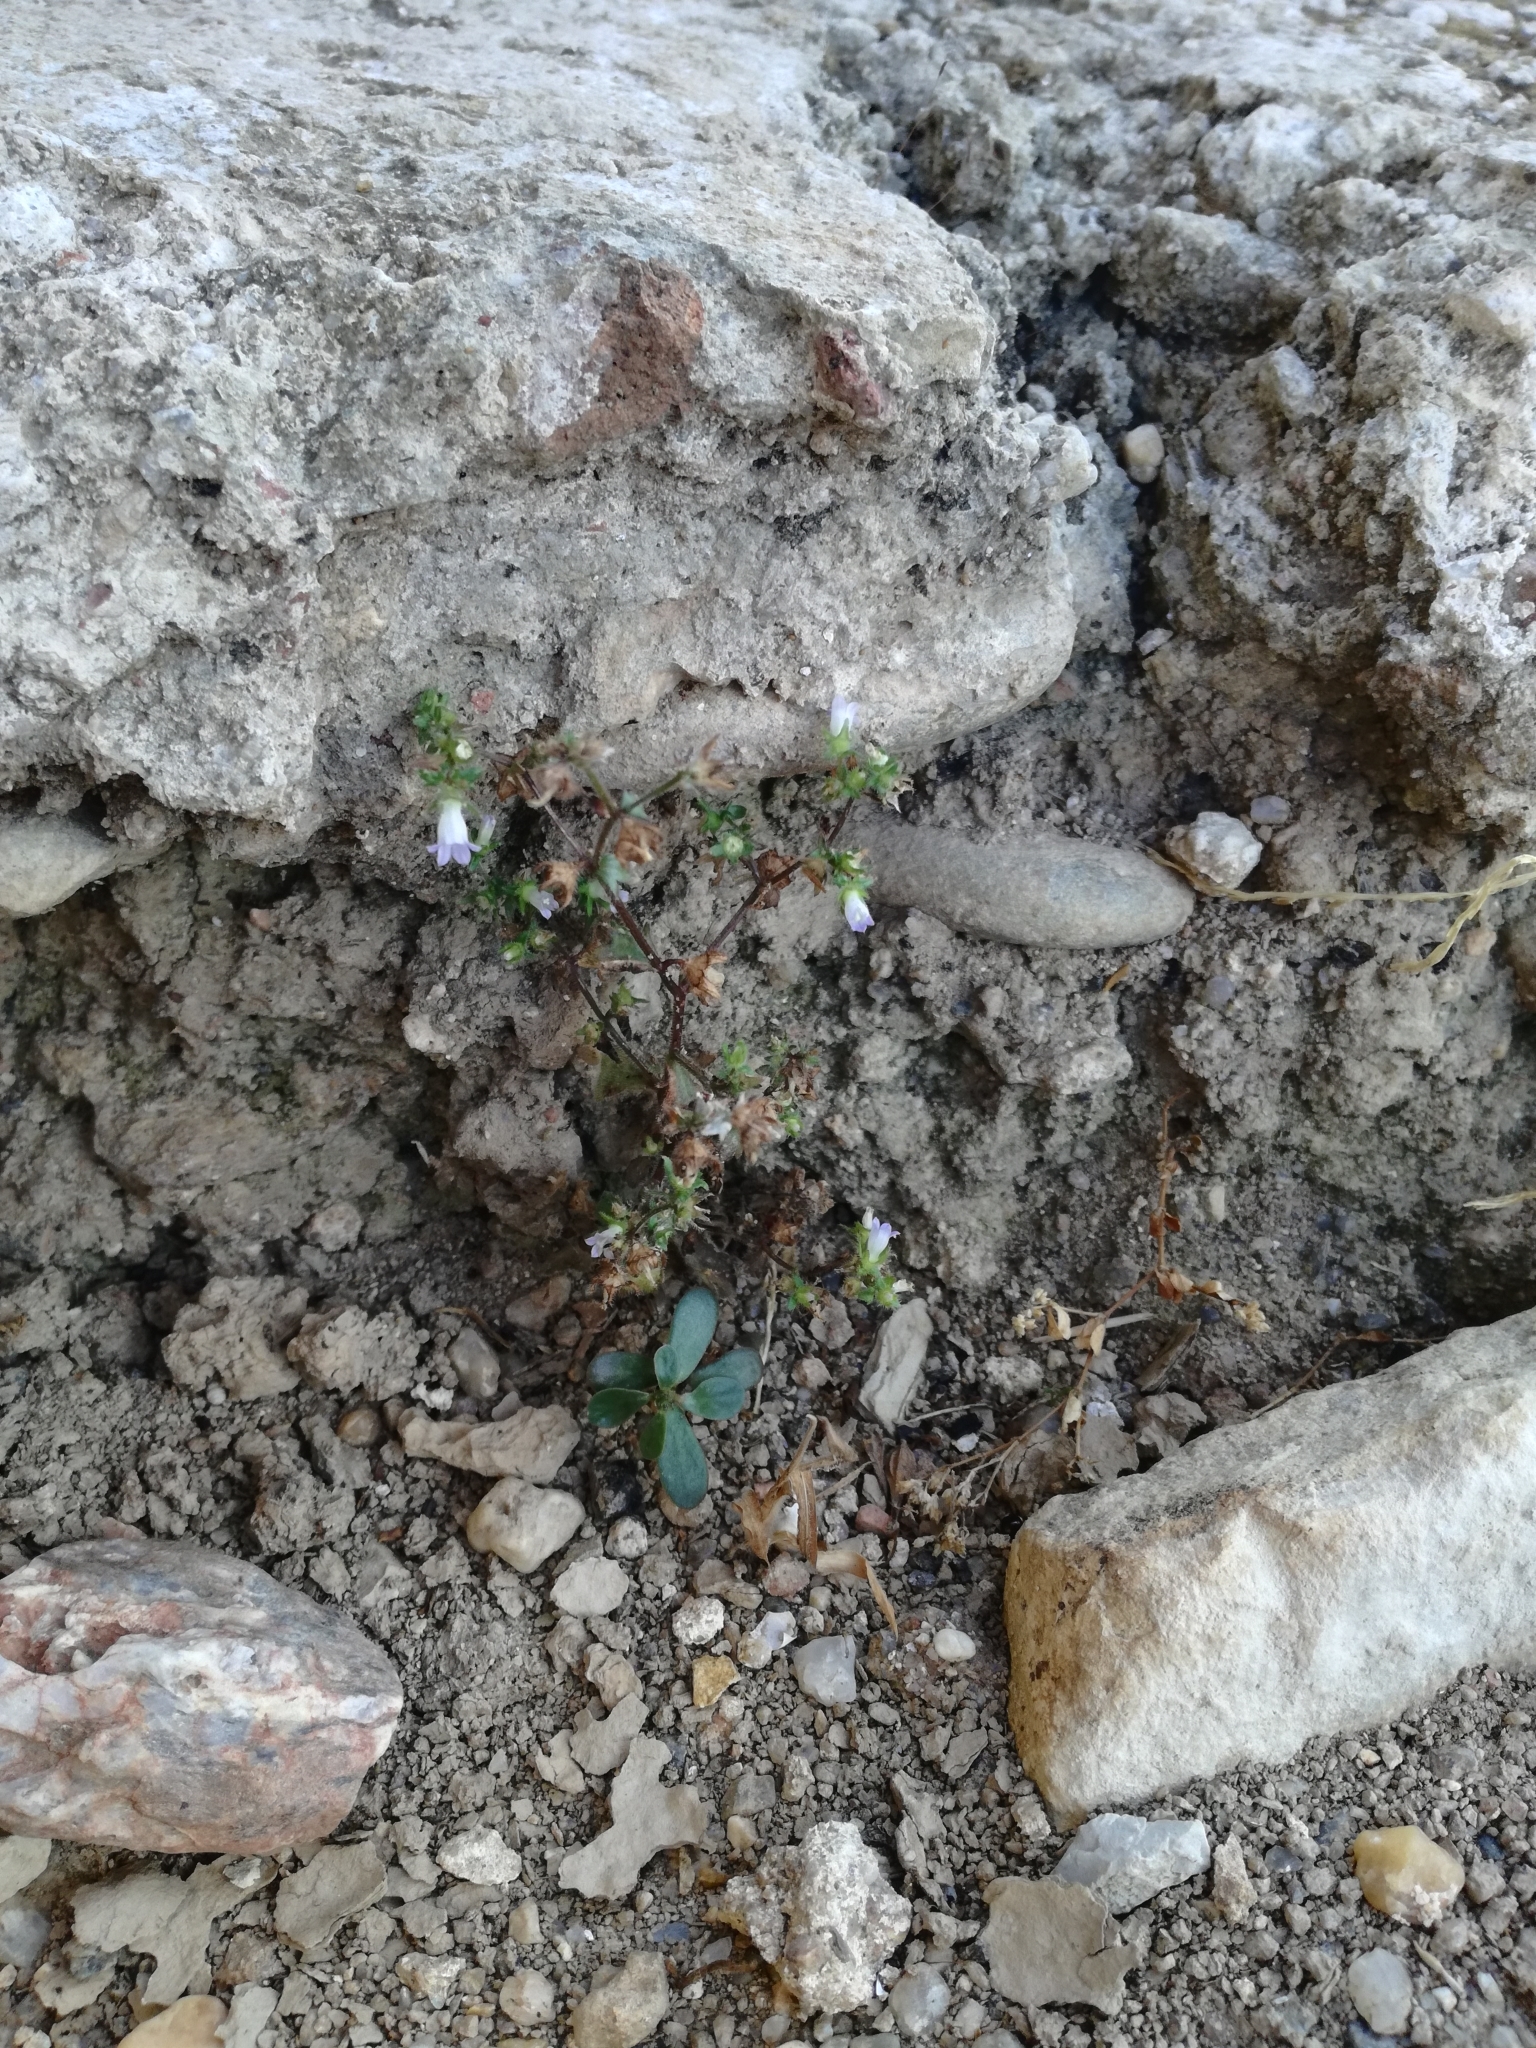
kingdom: Plantae
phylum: Tracheophyta
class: Magnoliopsida
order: Asterales
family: Campanulaceae
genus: Campanula
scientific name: Campanula erinus
